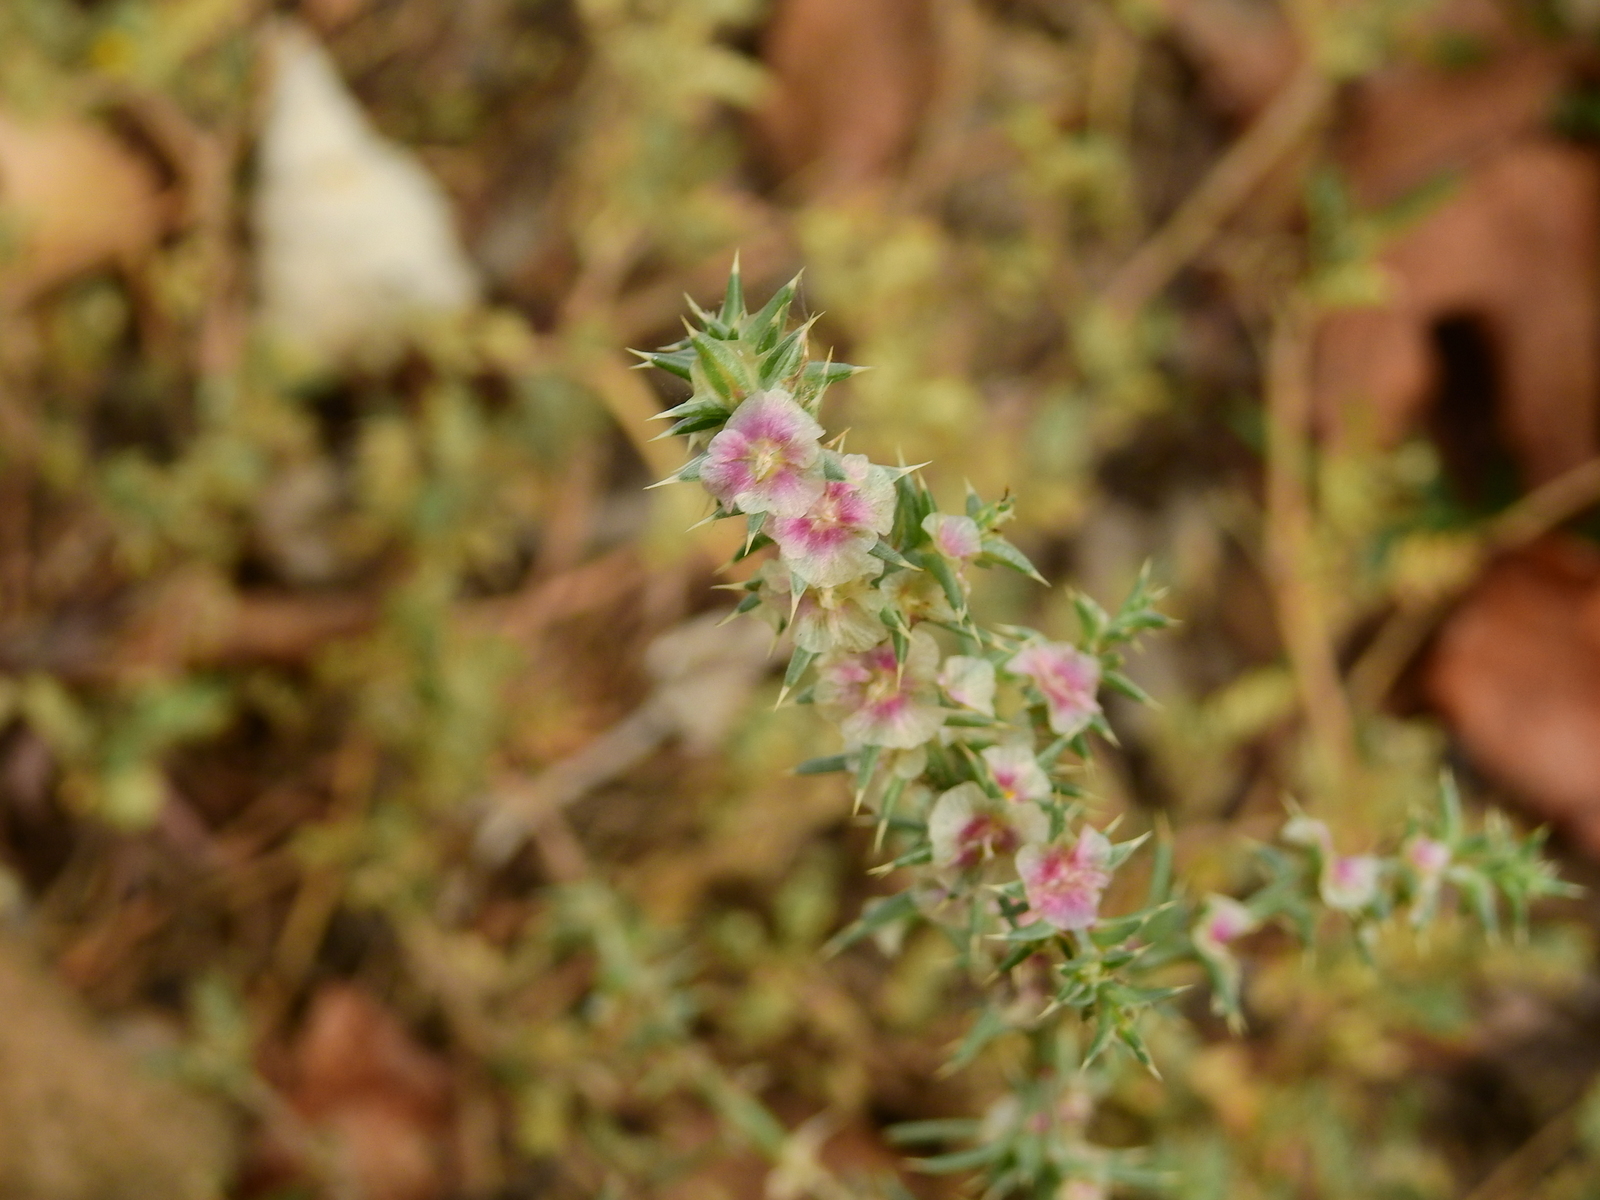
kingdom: Plantae
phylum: Tracheophyta
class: Magnoliopsida
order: Caryophyllales
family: Amaranthaceae
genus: Salsola
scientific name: Salsola kali
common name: Saltwort
